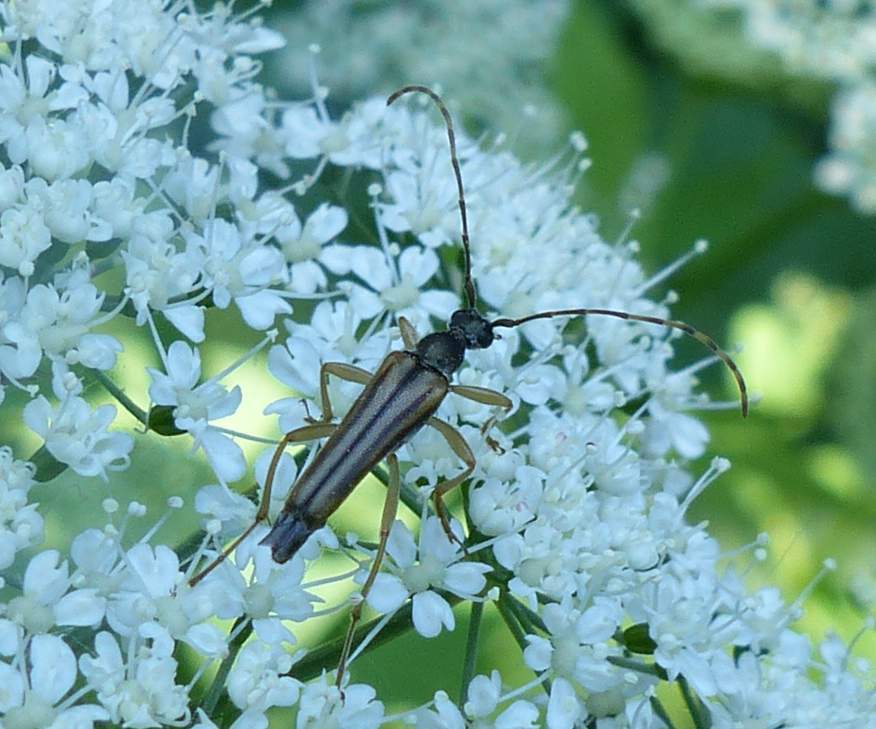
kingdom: Animalia
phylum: Arthropoda
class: Insecta
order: Coleoptera
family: Cerambycidae
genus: Analeptura
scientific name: Analeptura lineola
